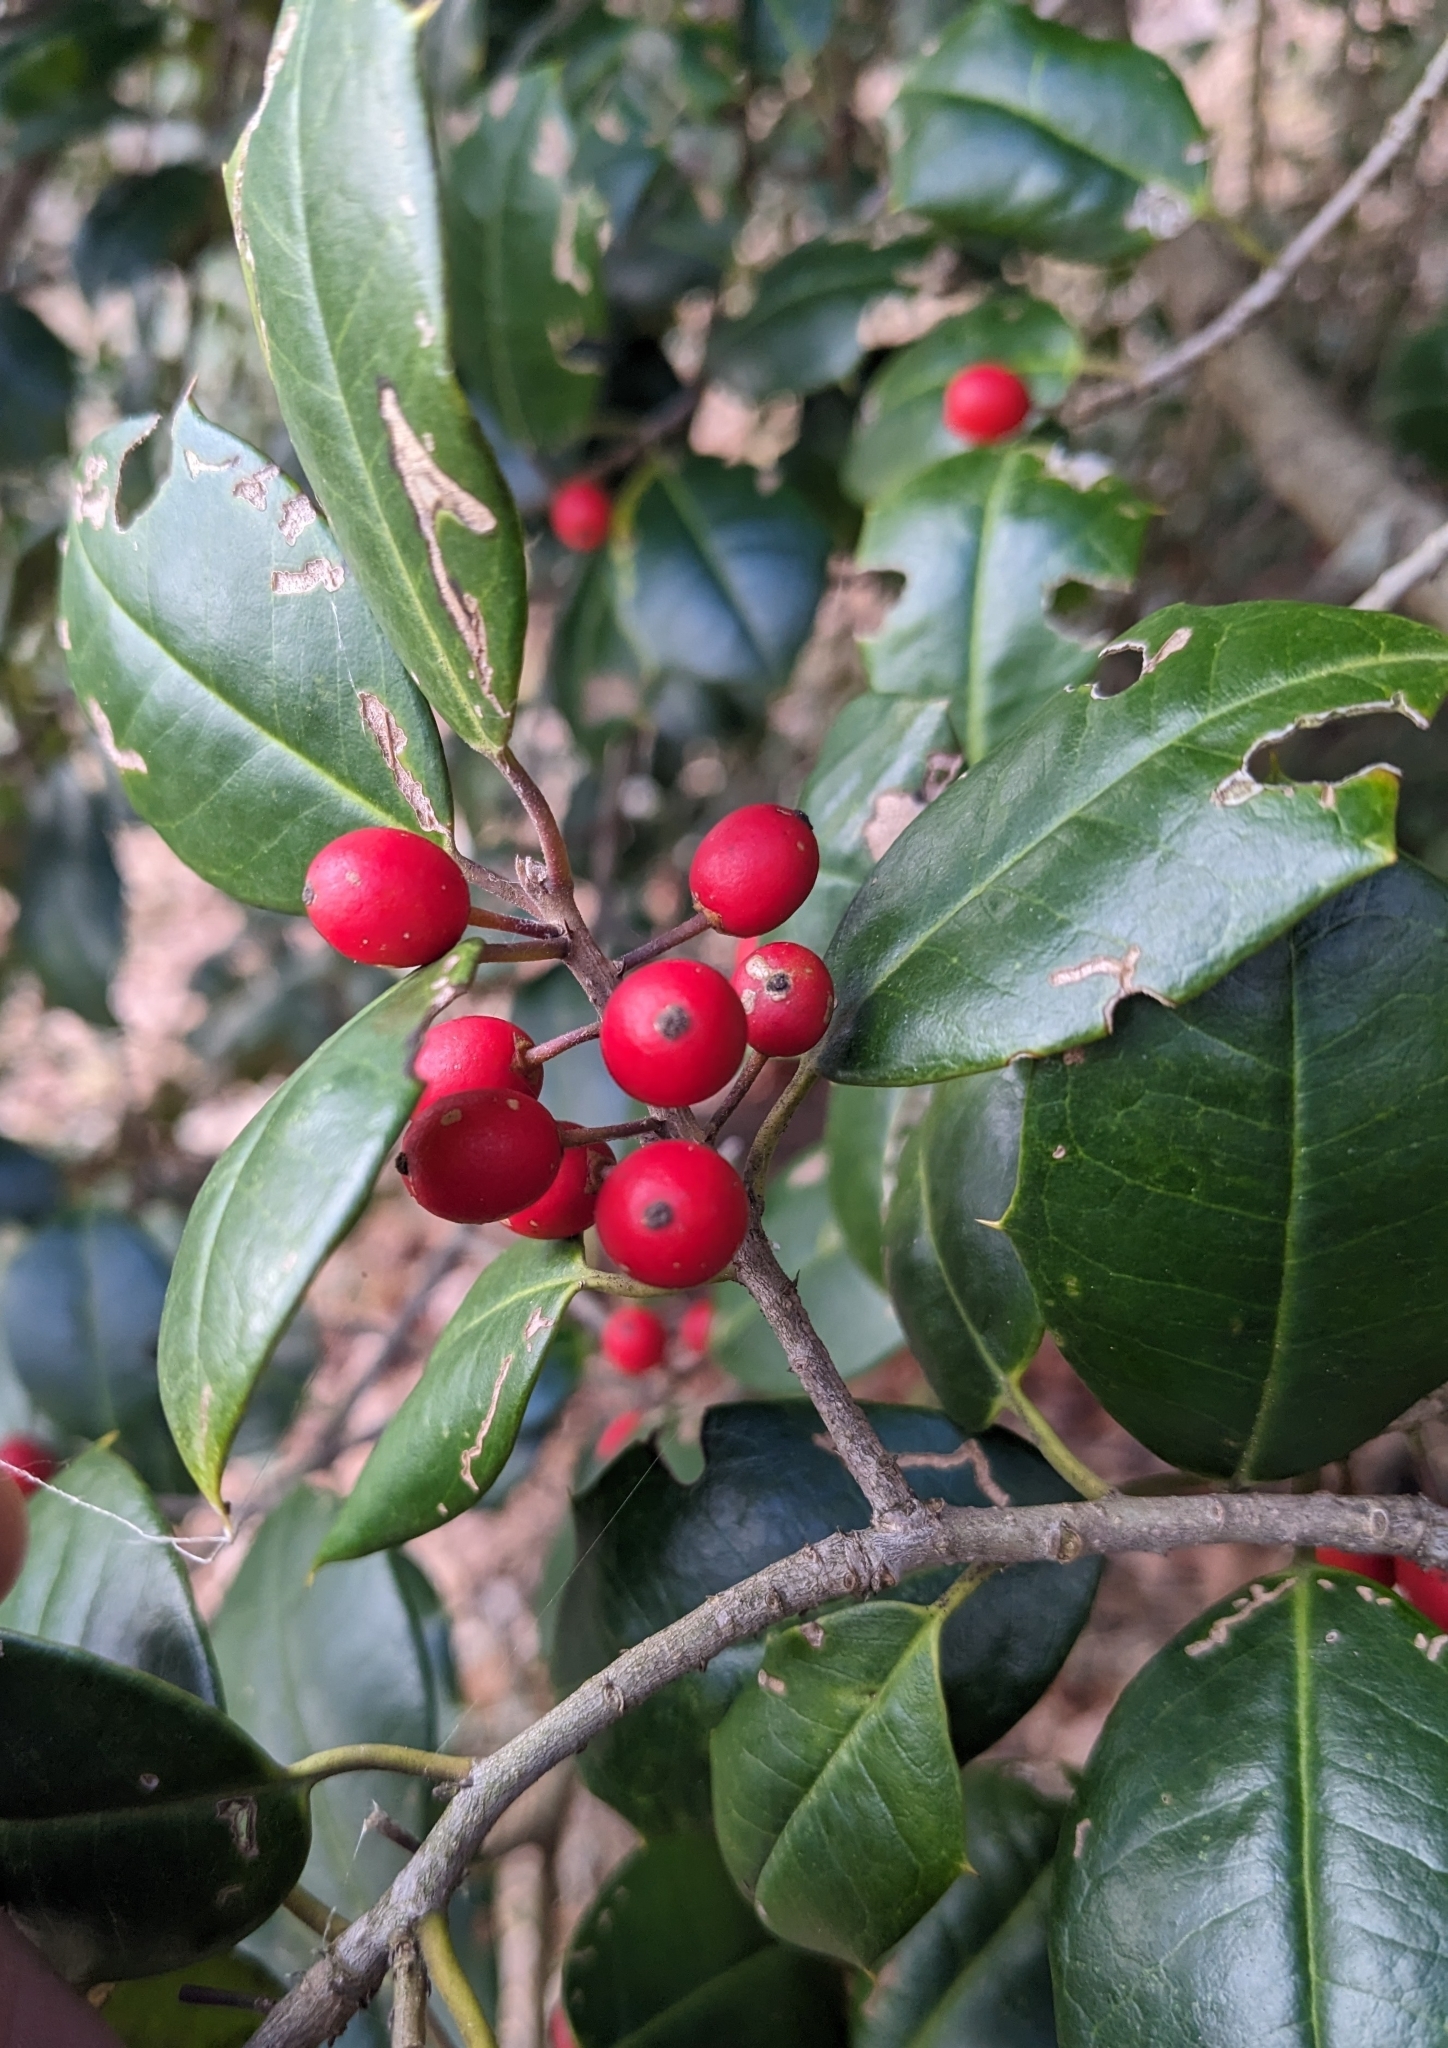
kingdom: Plantae
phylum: Tracheophyta
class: Magnoliopsida
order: Aquifoliales
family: Aquifoliaceae
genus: Ilex
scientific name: Ilex opaca
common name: American holly
